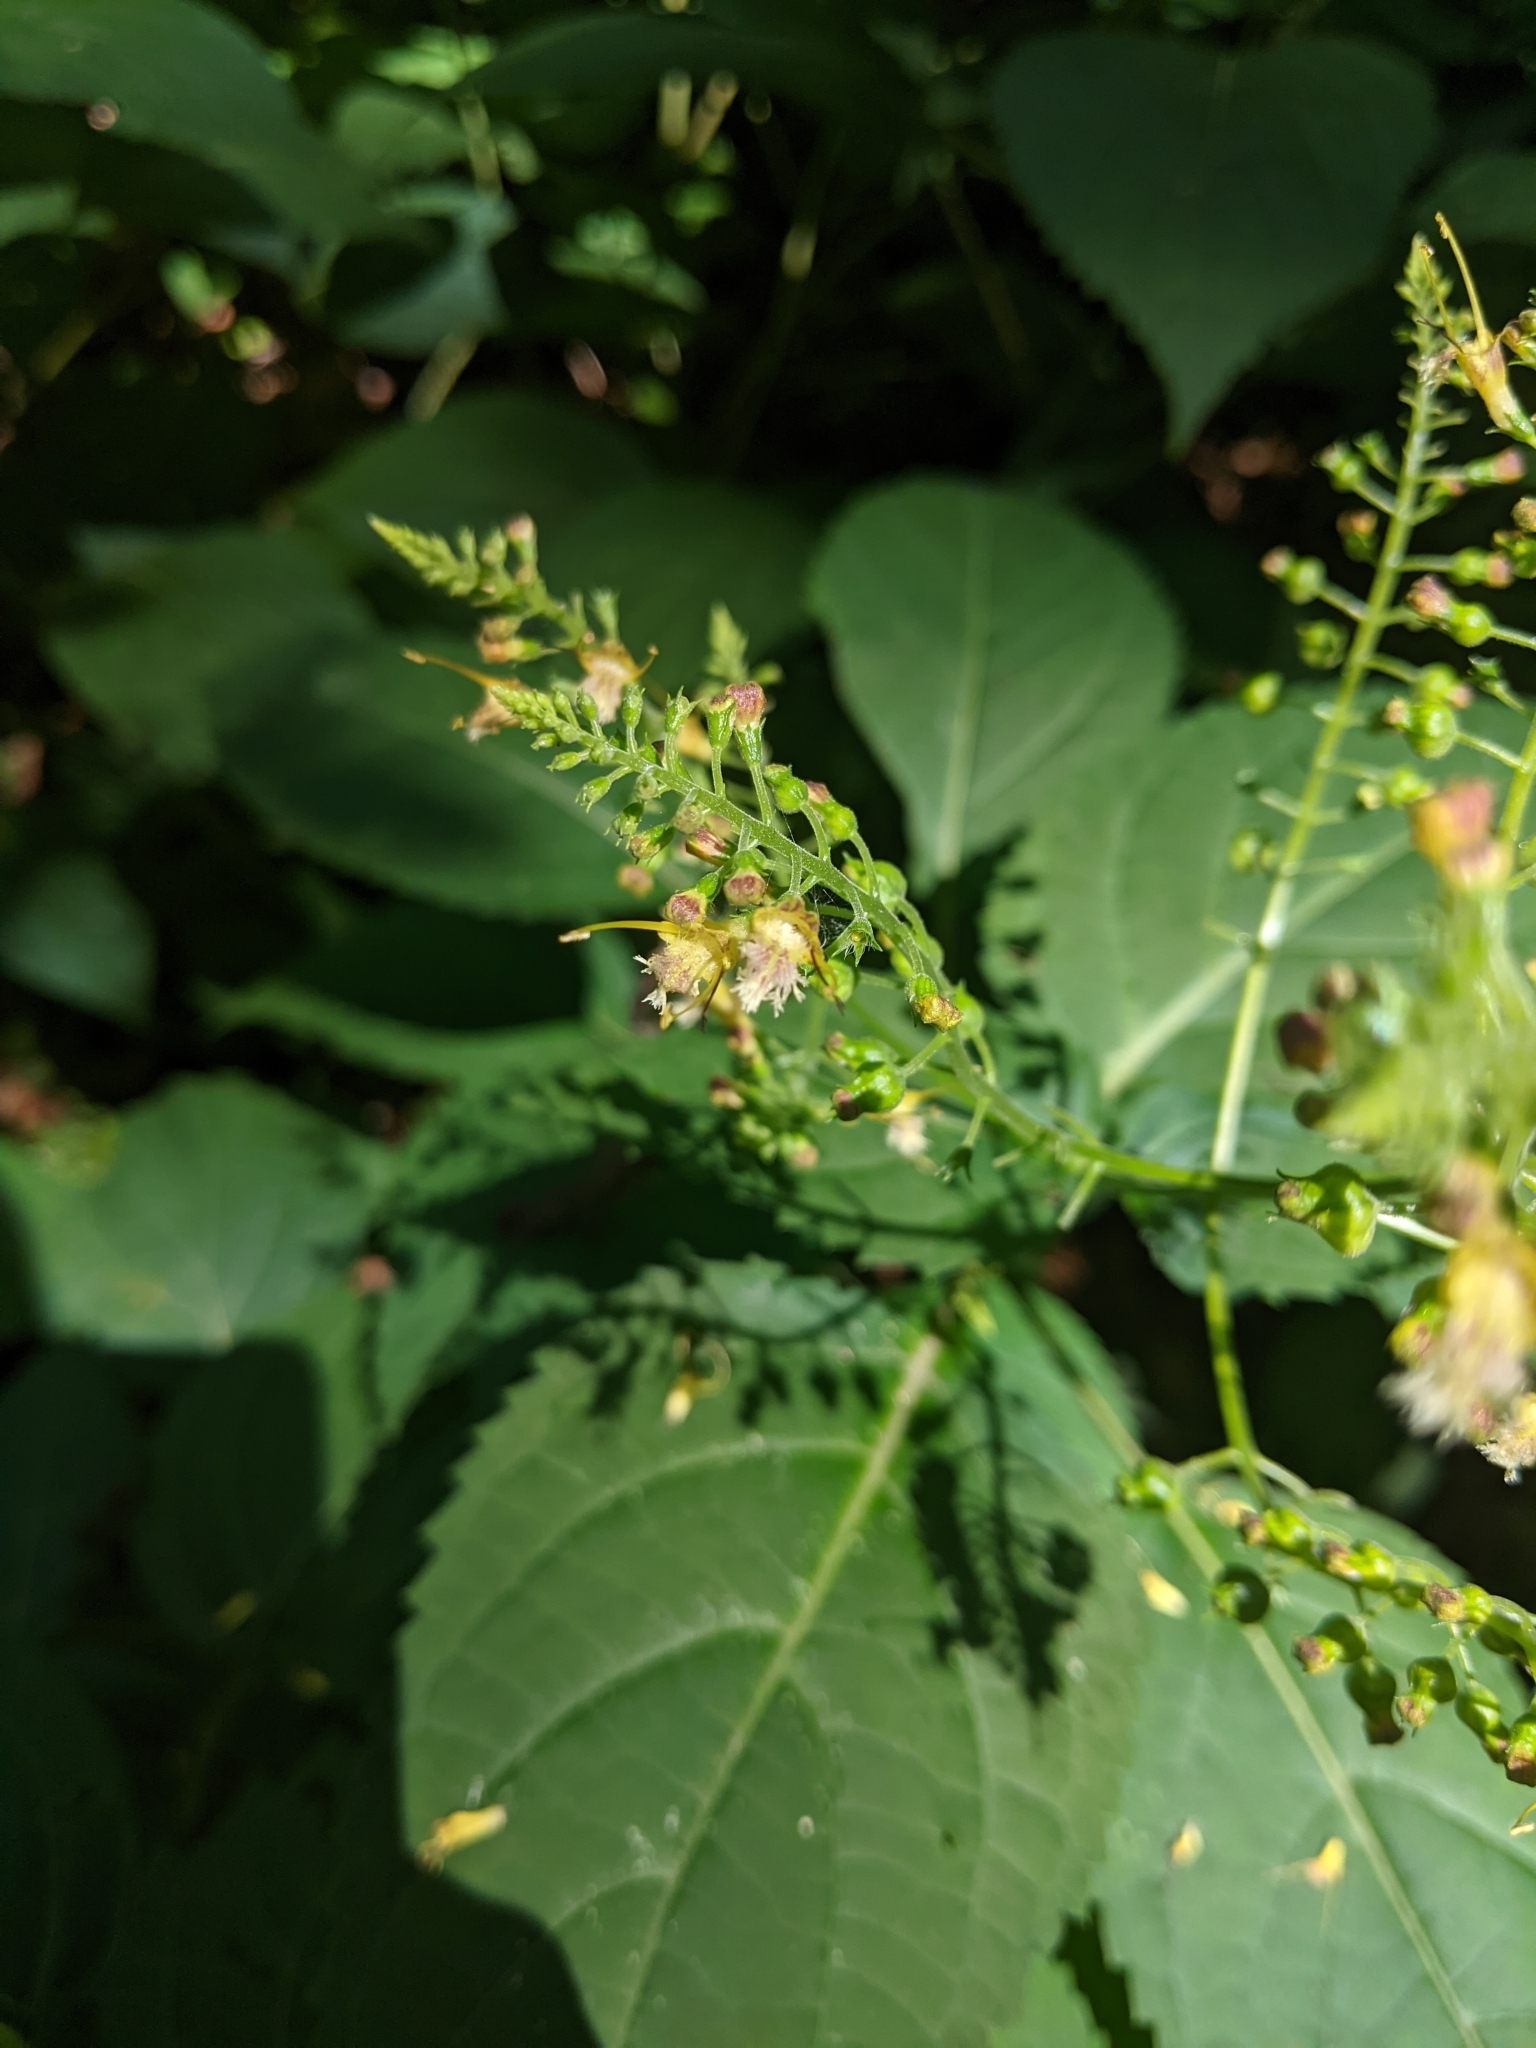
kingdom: Plantae
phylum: Tracheophyta
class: Magnoliopsida
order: Lamiales
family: Lamiaceae
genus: Collinsonia
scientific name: Collinsonia canadensis
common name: Northern horsebalm
